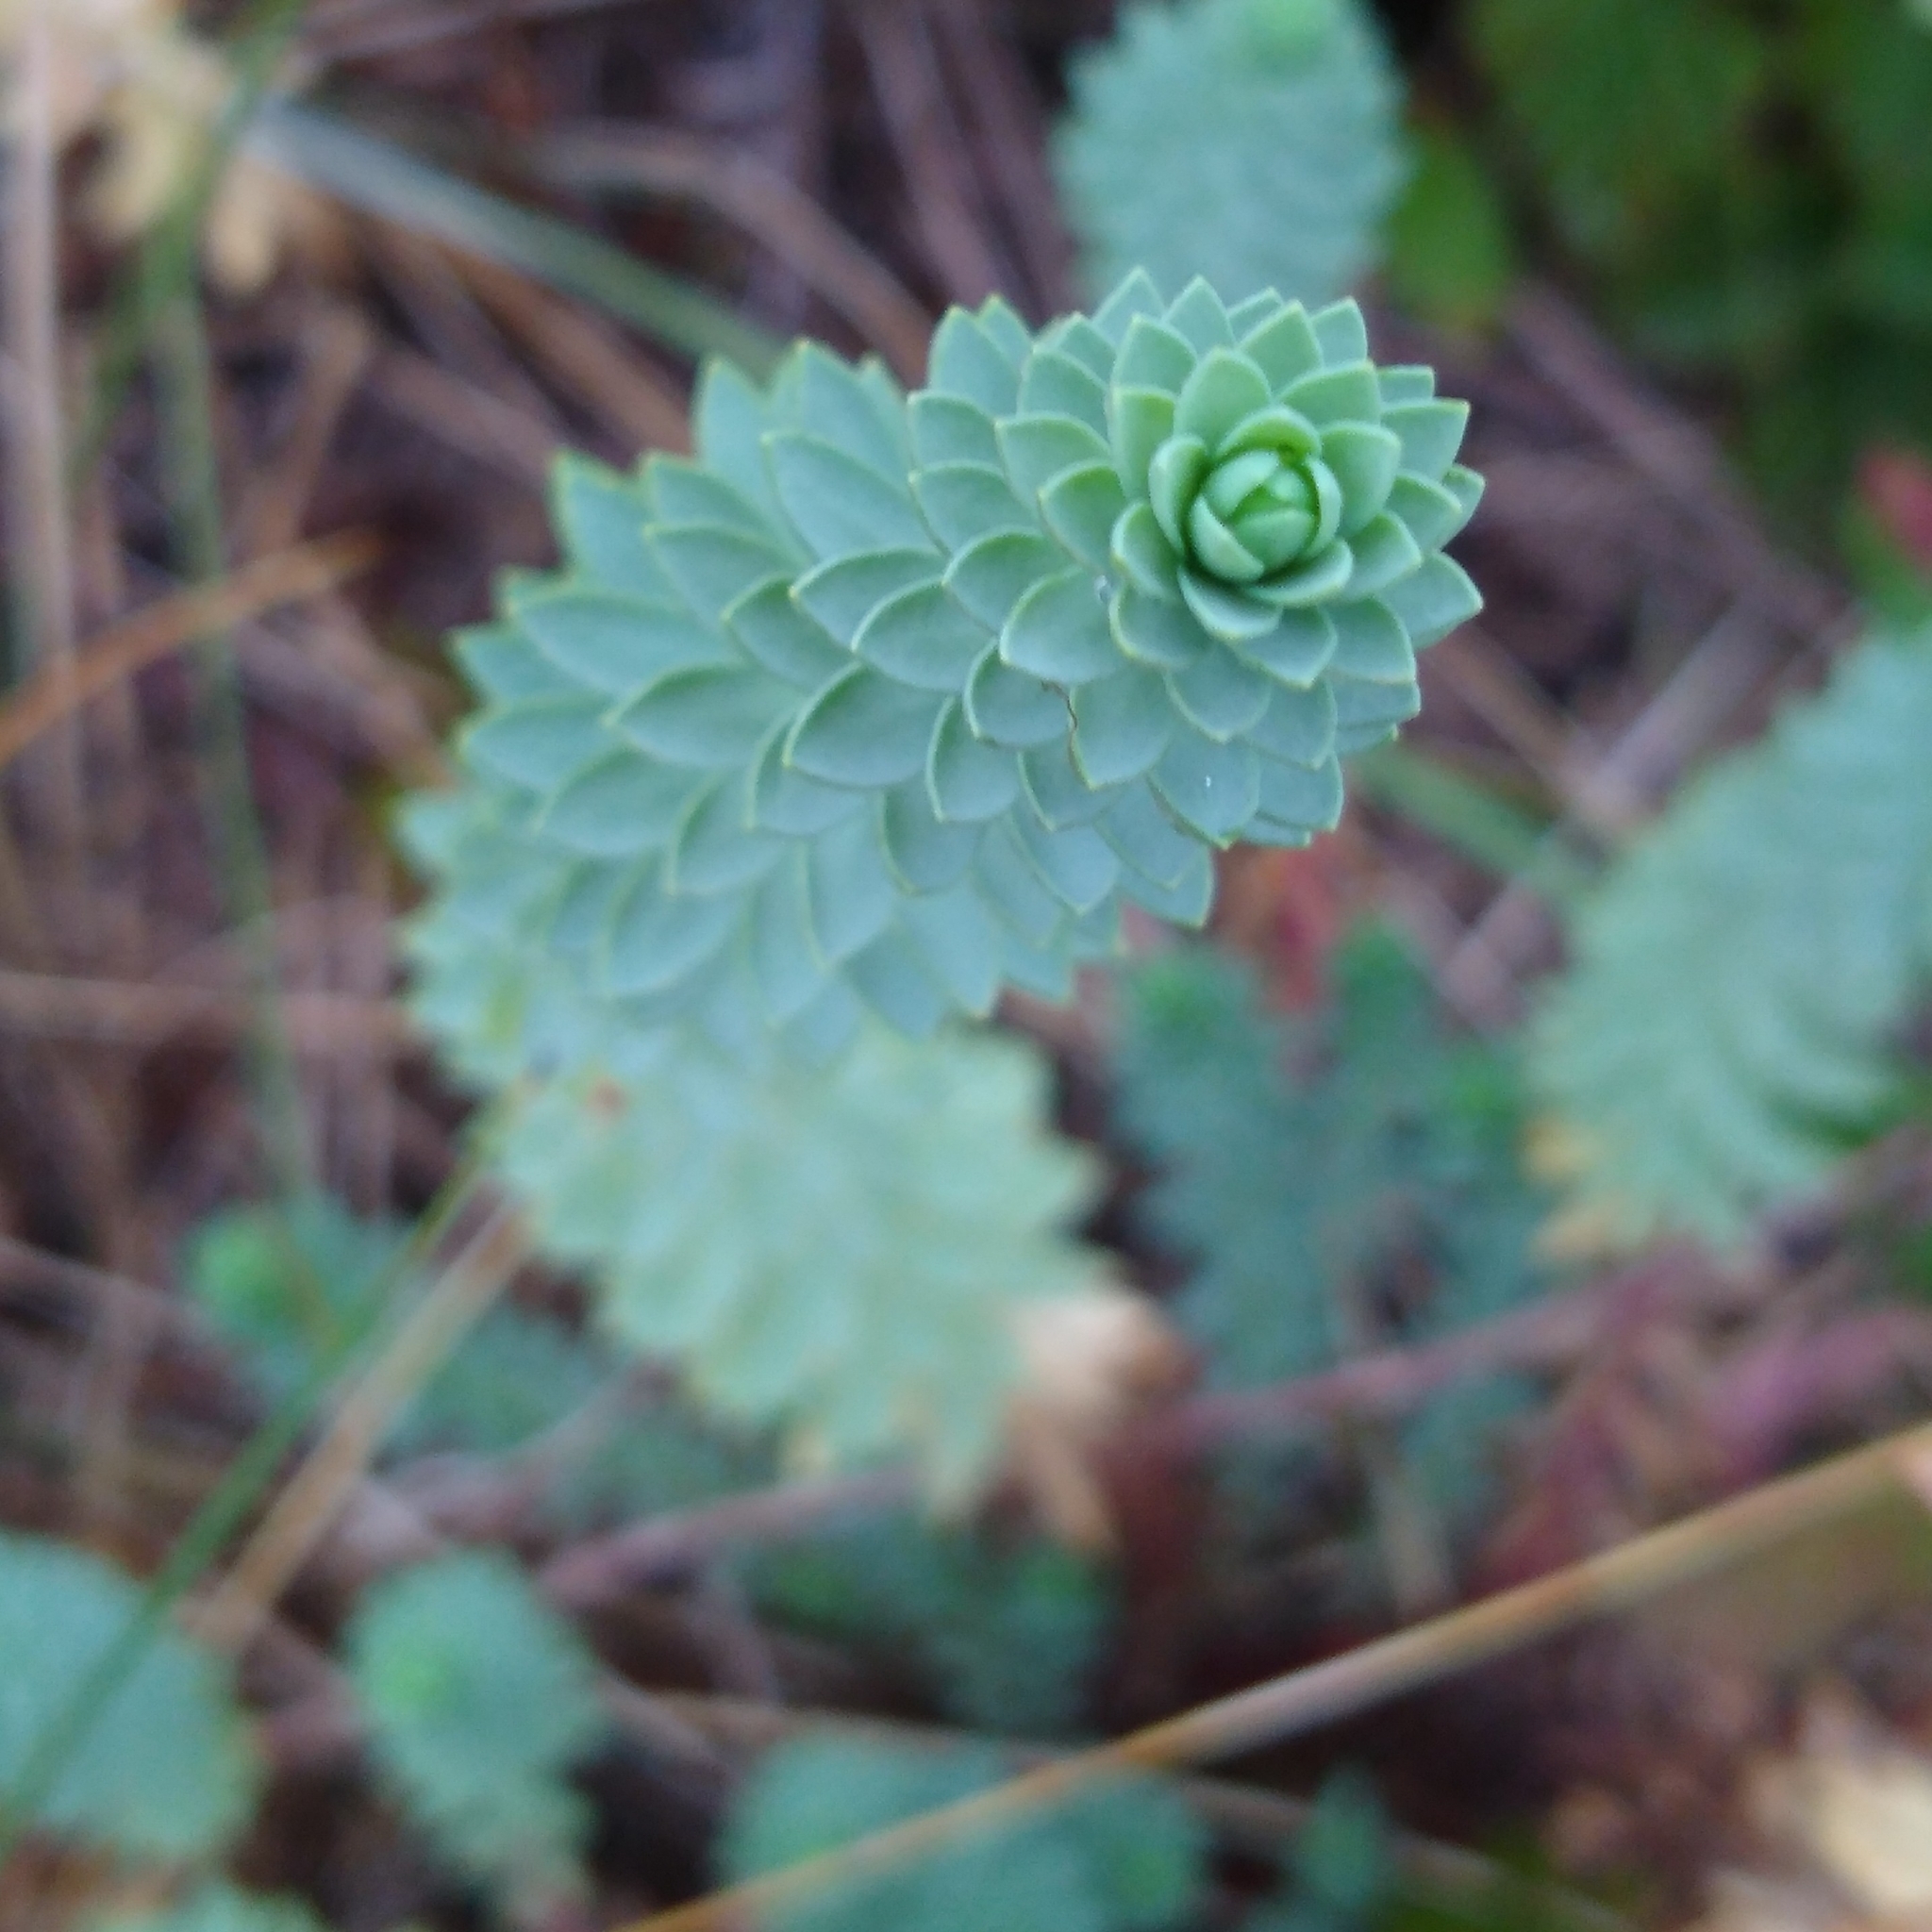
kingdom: Plantae
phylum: Tracheophyta
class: Magnoliopsida
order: Malpighiales
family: Euphorbiaceae
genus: Euphorbia
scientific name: Euphorbia paralias
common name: Sea spurge
